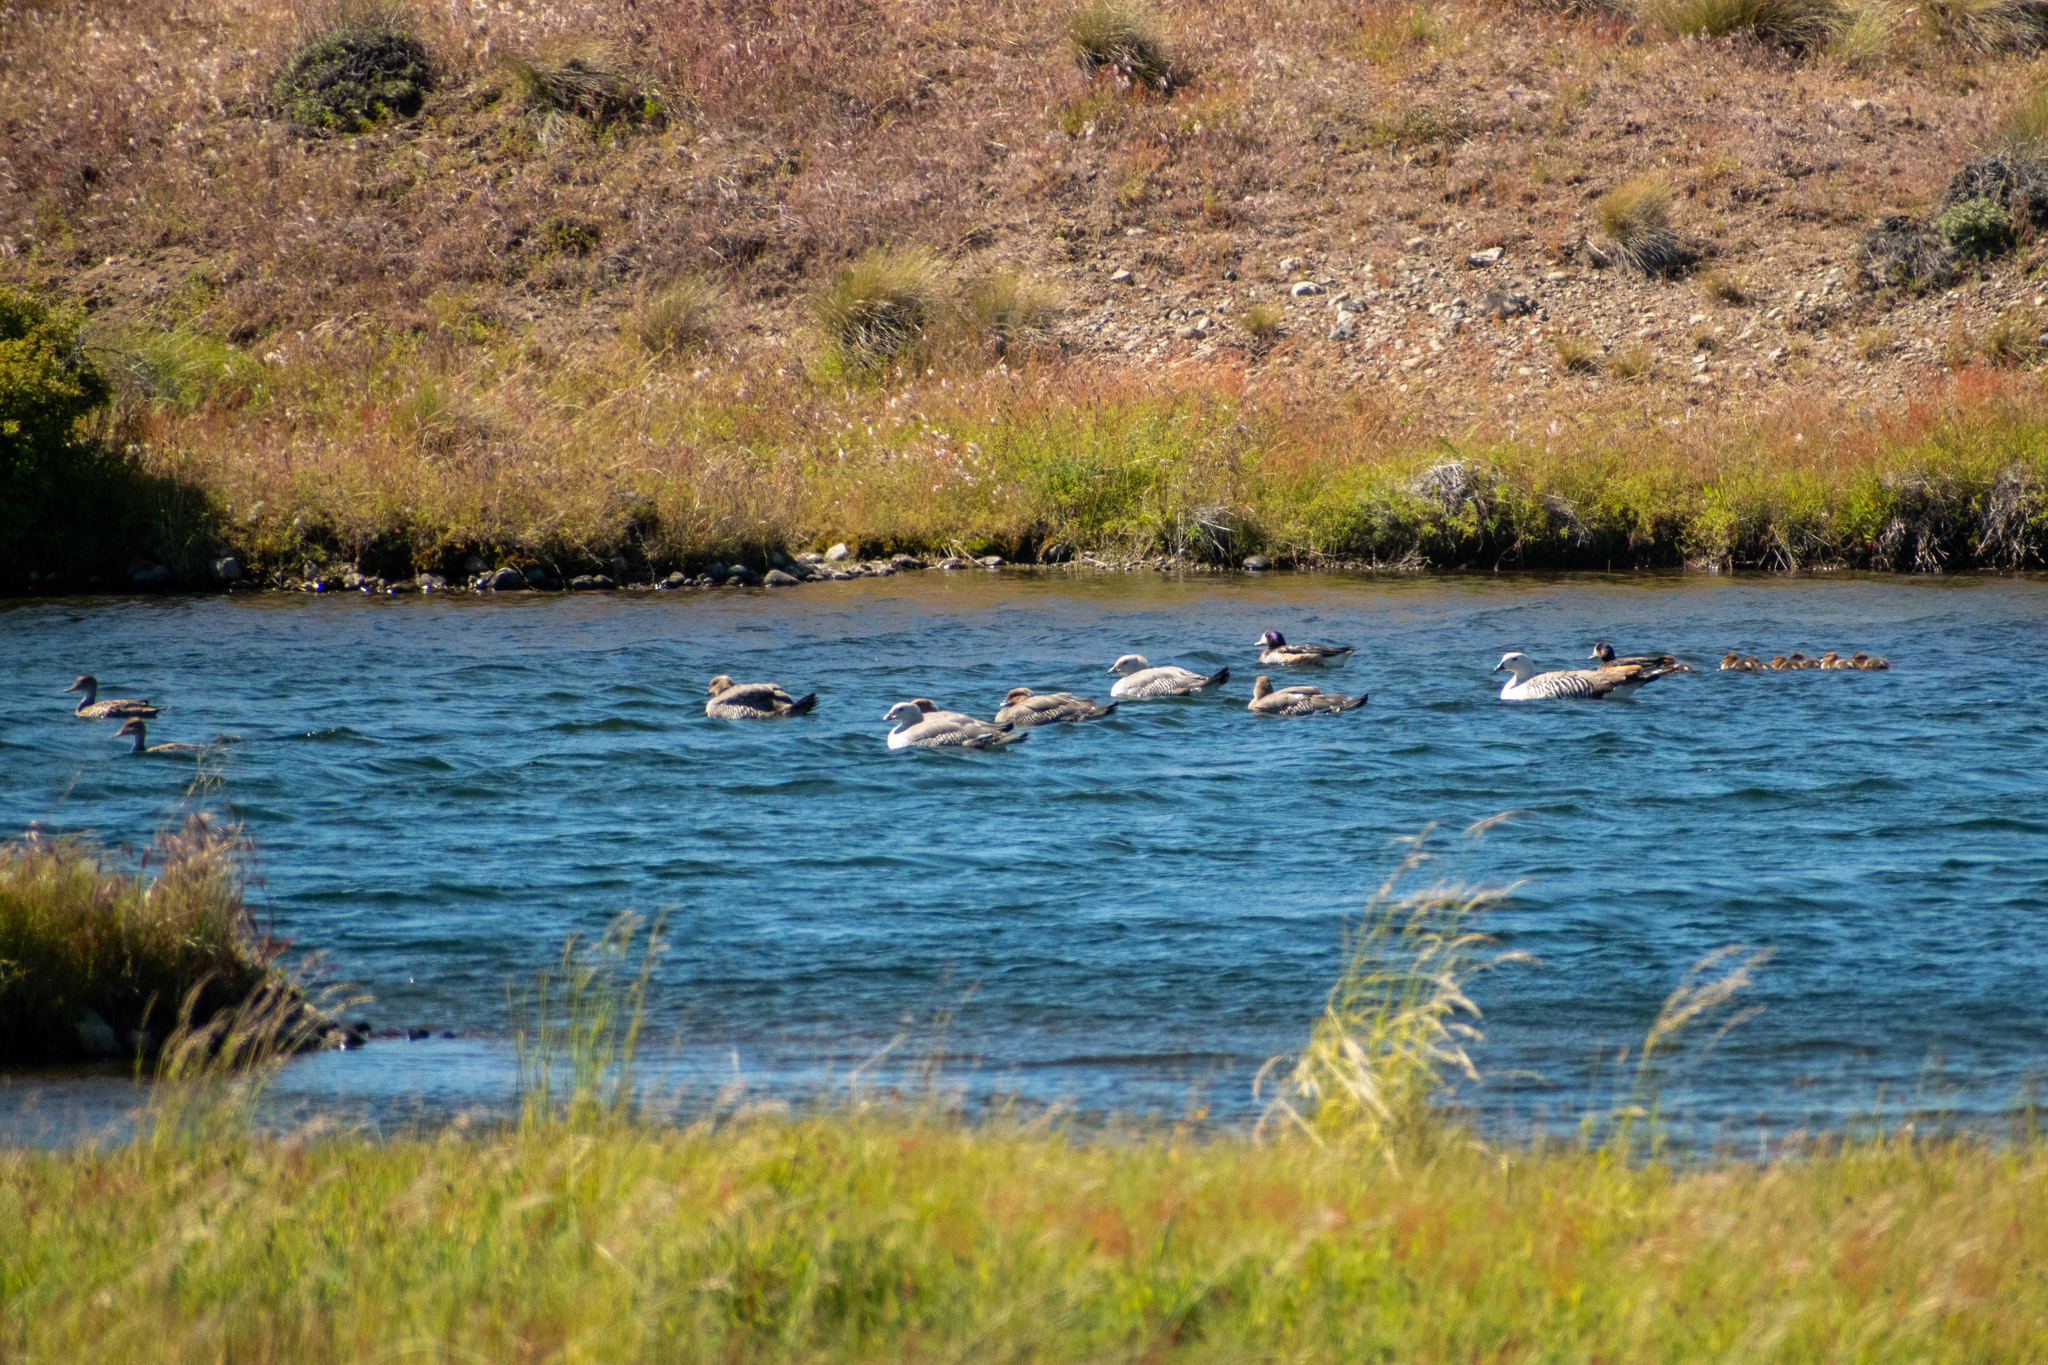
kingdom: Animalia
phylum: Chordata
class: Aves
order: Anseriformes
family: Anatidae
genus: Chloephaga
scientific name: Chloephaga picta
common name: Upland goose
